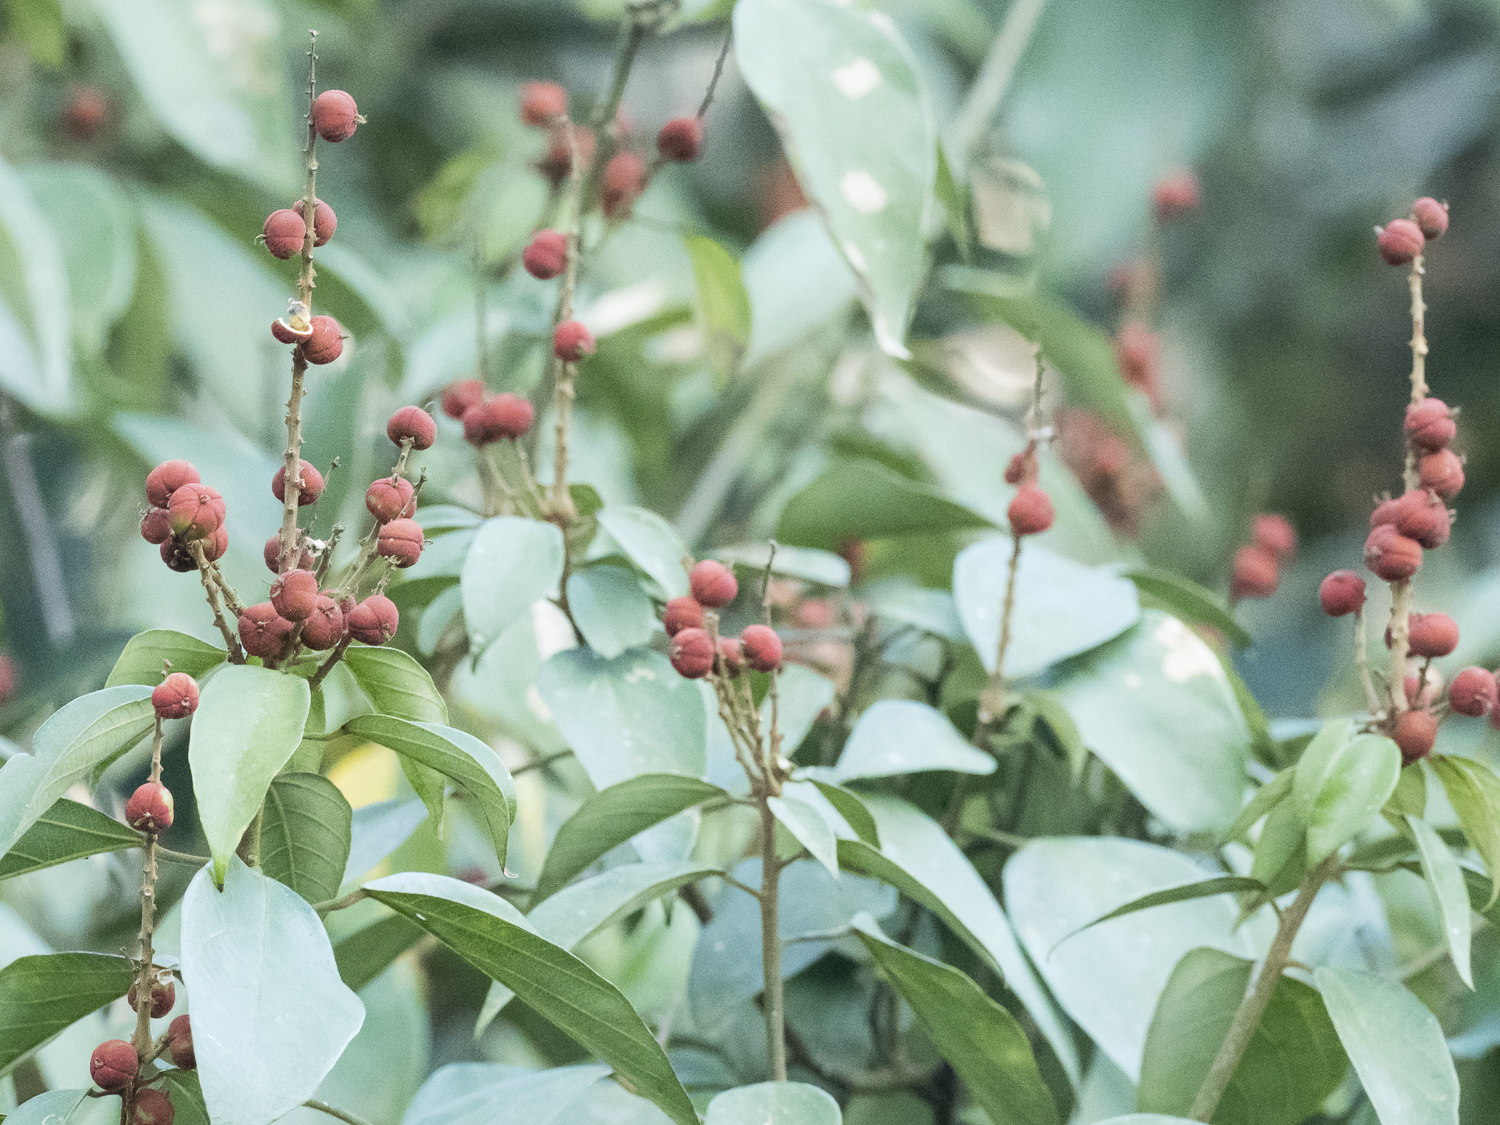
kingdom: Plantae
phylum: Tracheophyta
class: Magnoliopsida
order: Malpighiales
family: Euphorbiaceae
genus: Mallotus
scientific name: Mallotus philippensis
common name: Kamala tree
